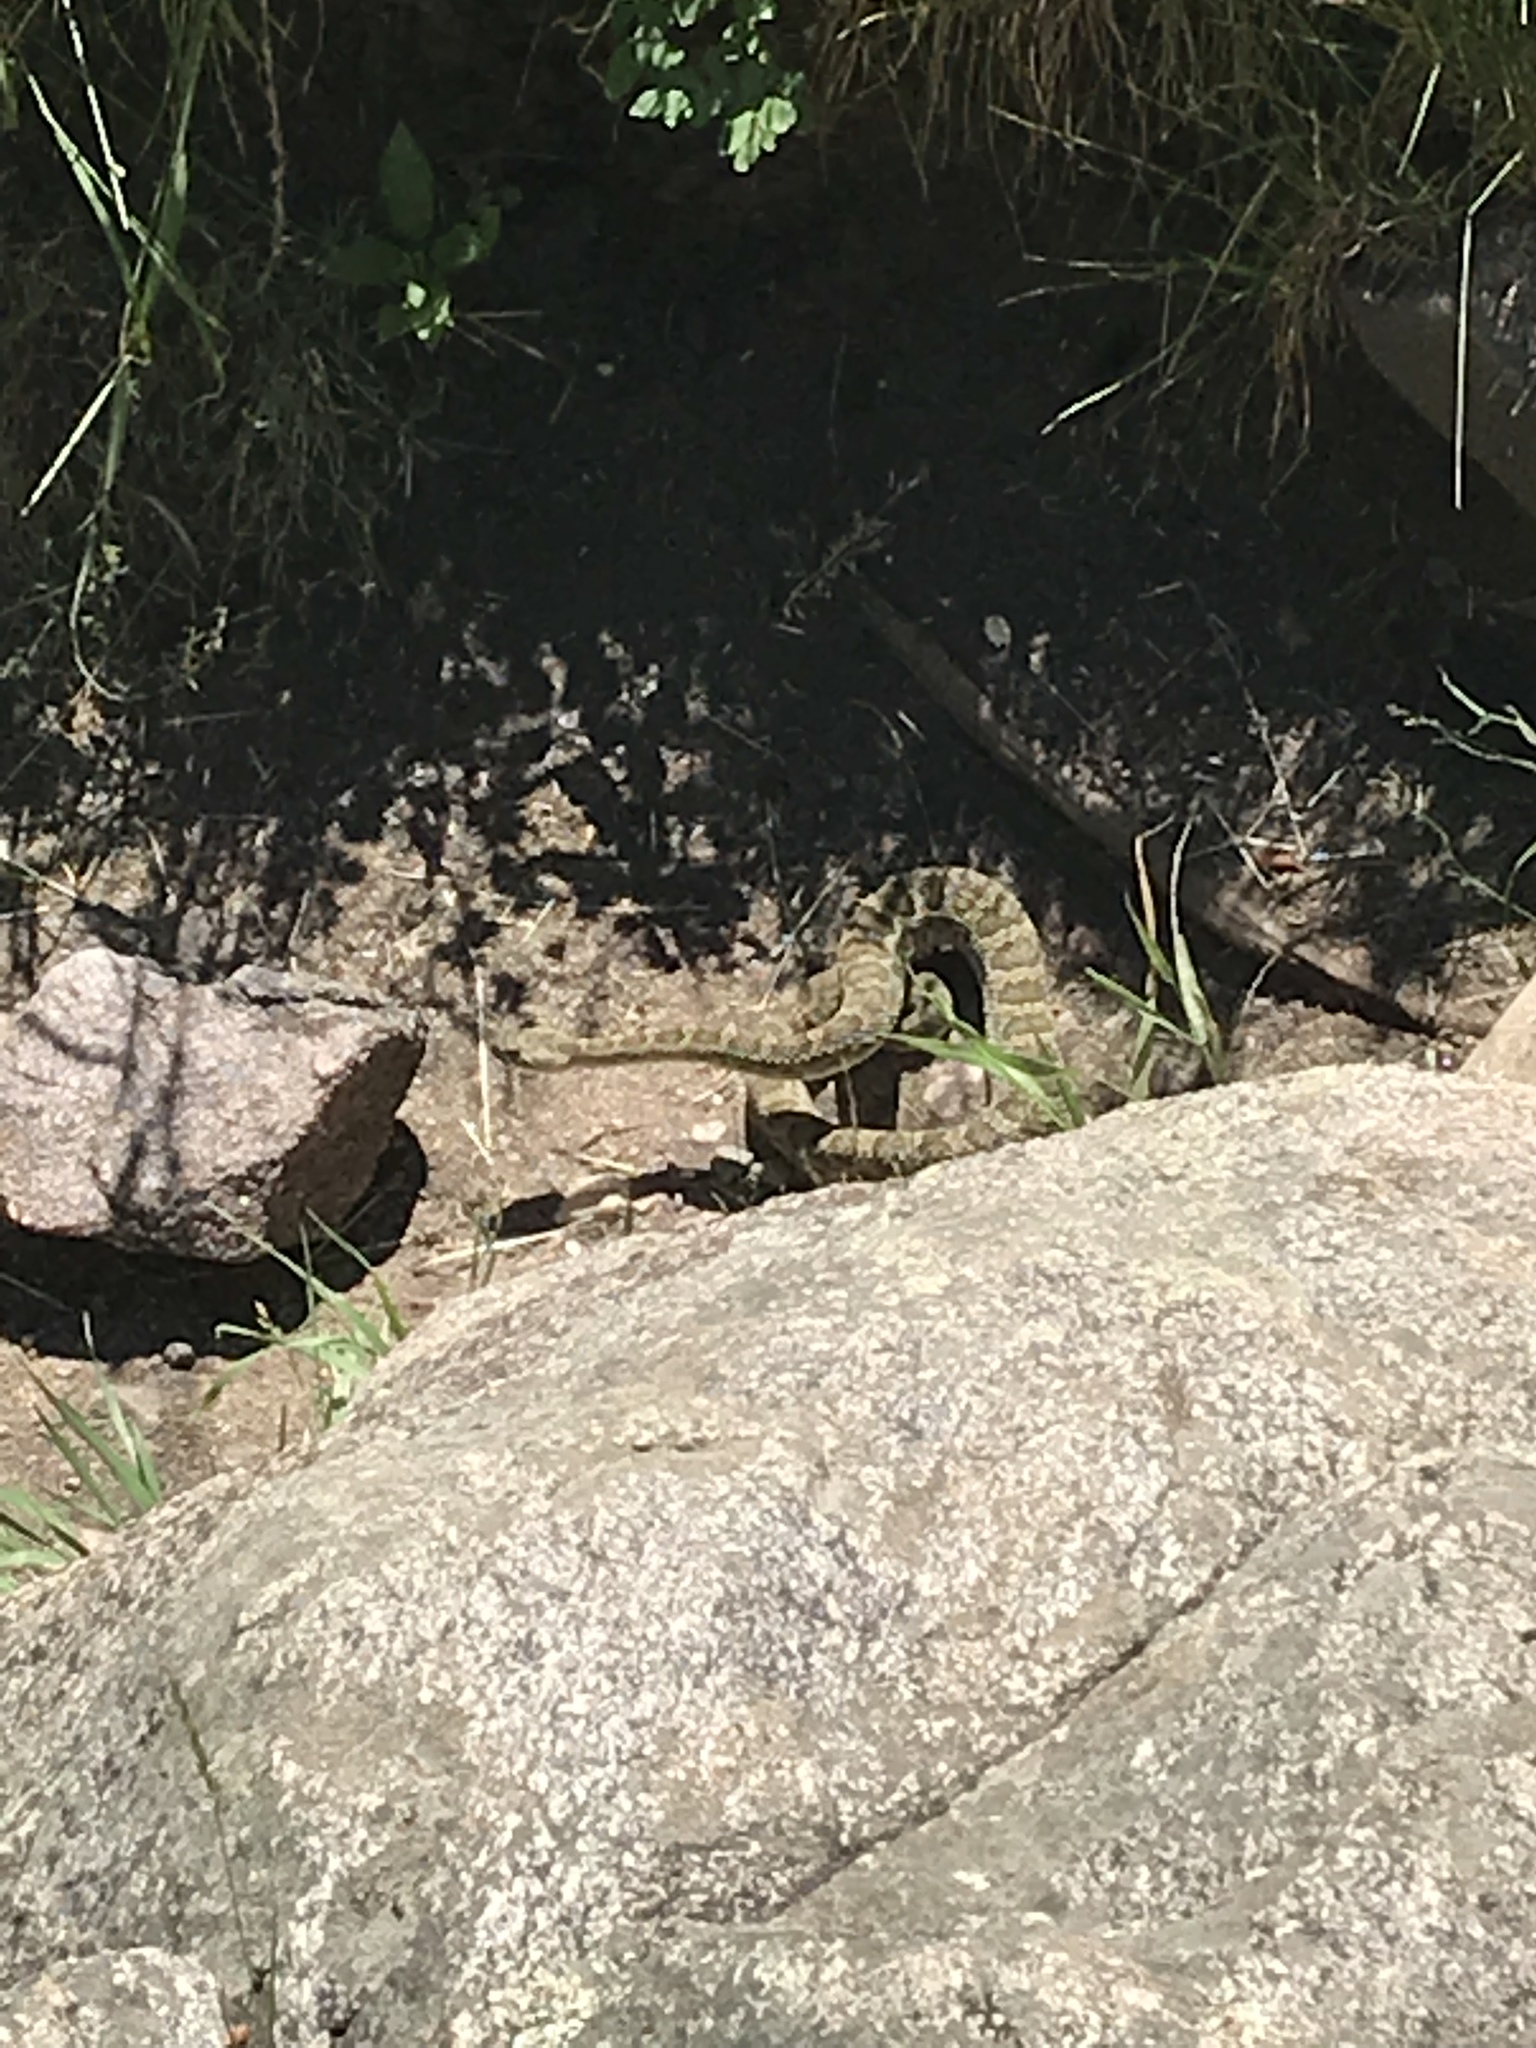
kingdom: Animalia
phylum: Chordata
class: Squamata
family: Viperidae
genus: Crotalus
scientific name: Crotalus viridis
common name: Prairie rattlesnake
